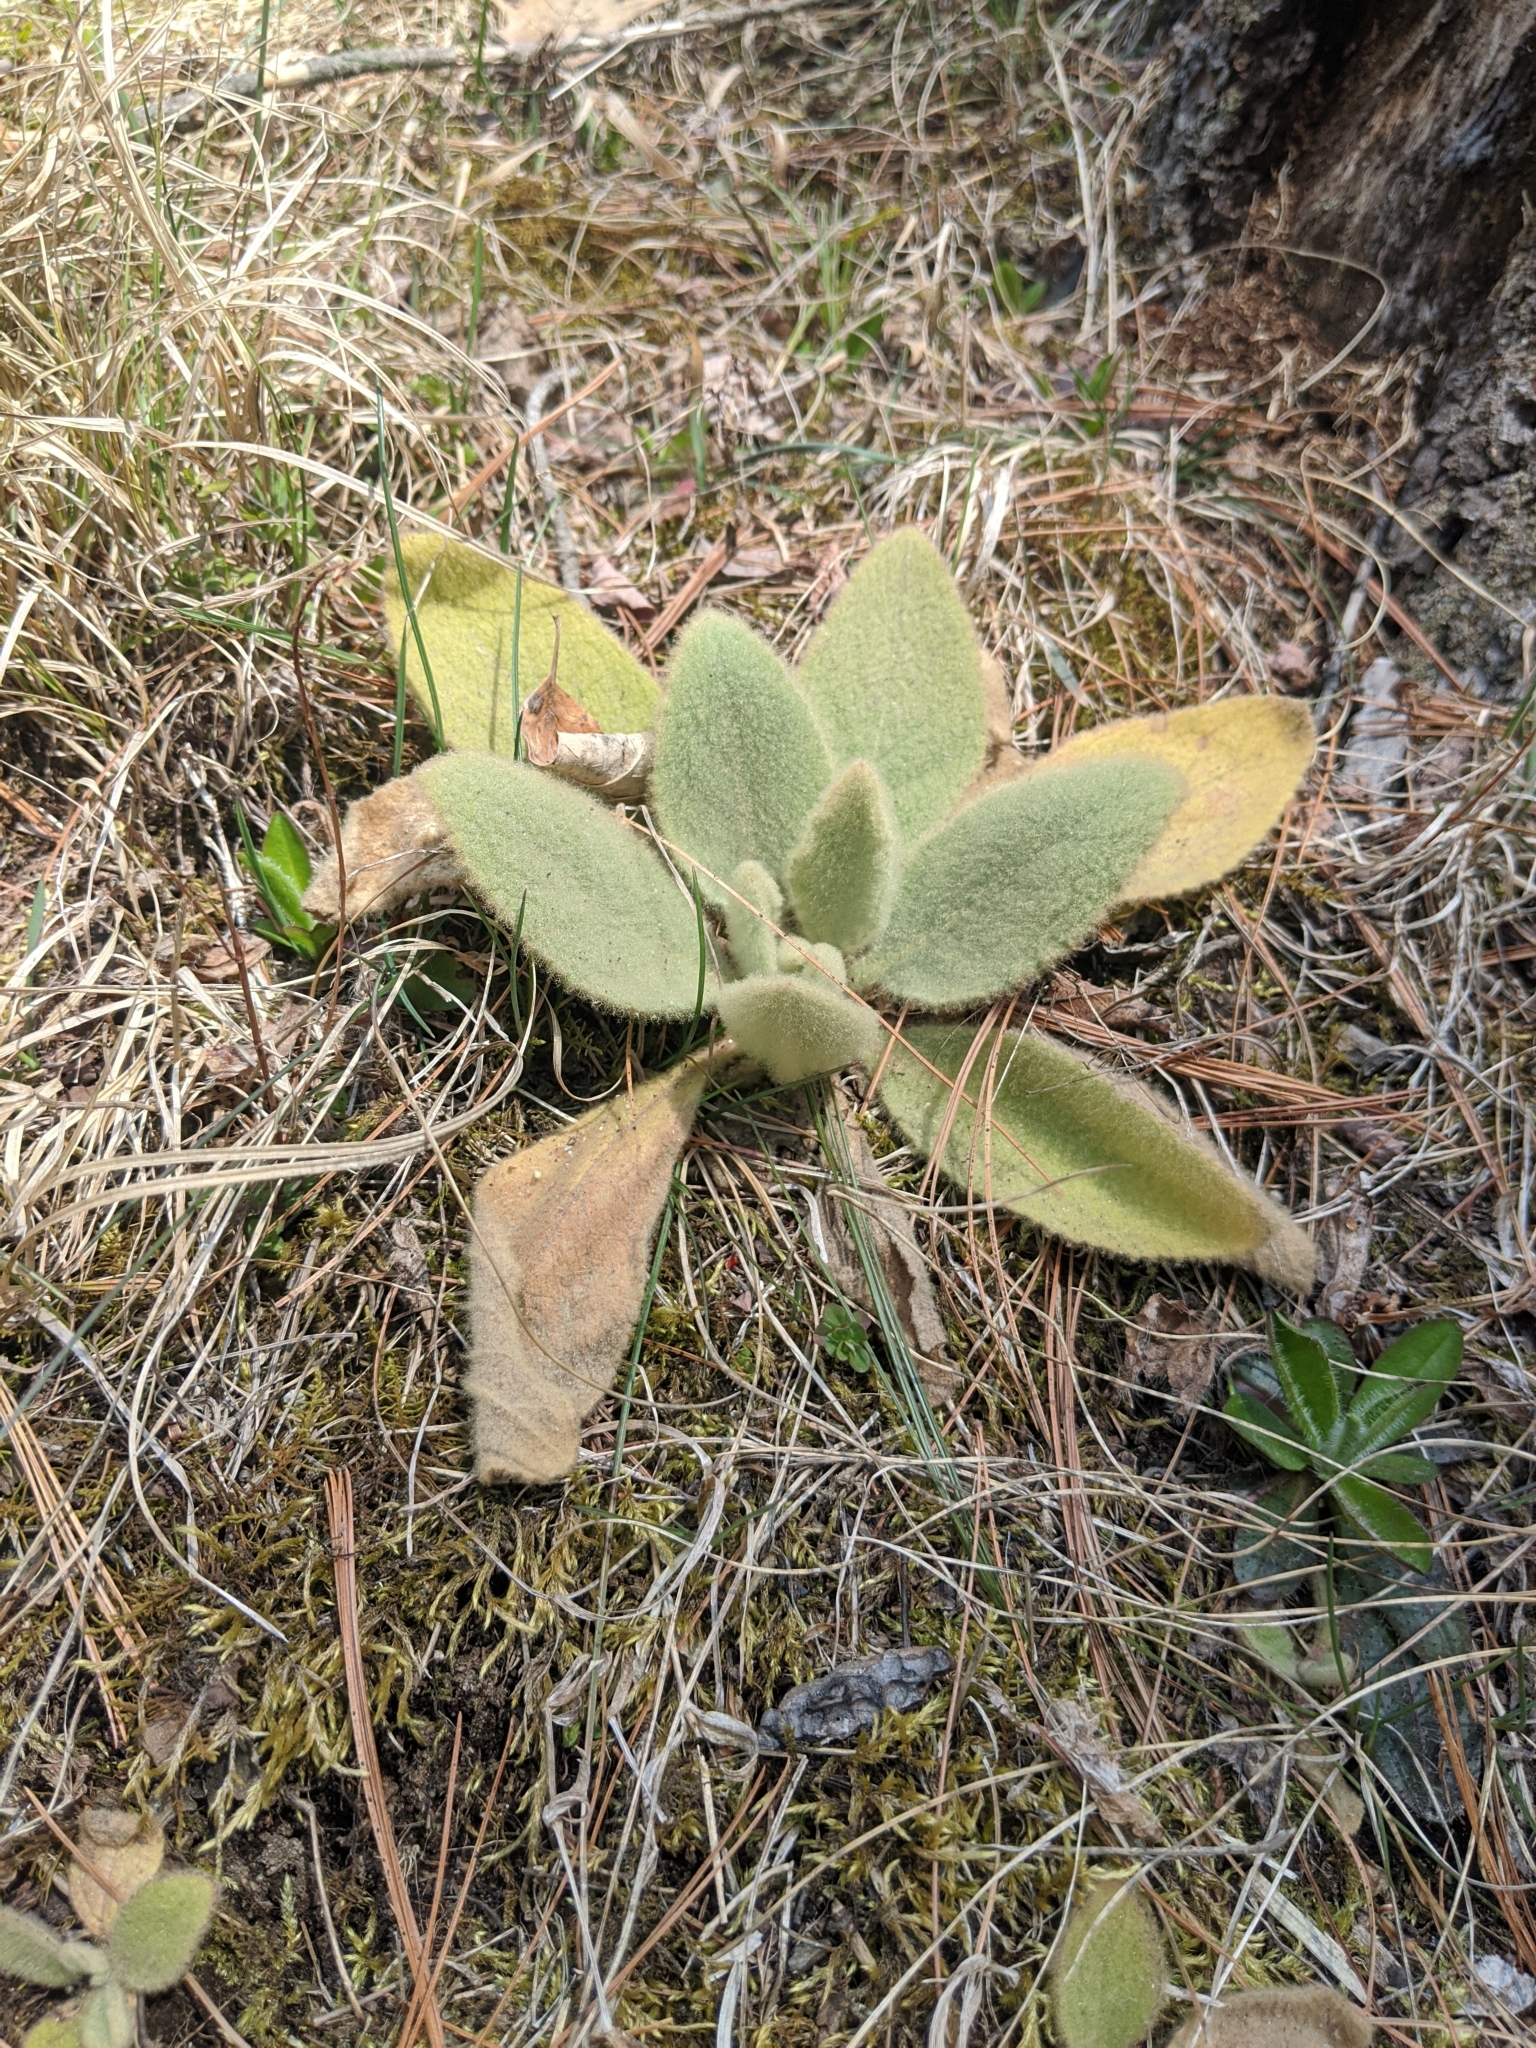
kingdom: Plantae
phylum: Tracheophyta
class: Magnoliopsida
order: Lamiales
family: Scrophulariaceae
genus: Verbascum
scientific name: Verbascum thapsus
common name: Common mullein
